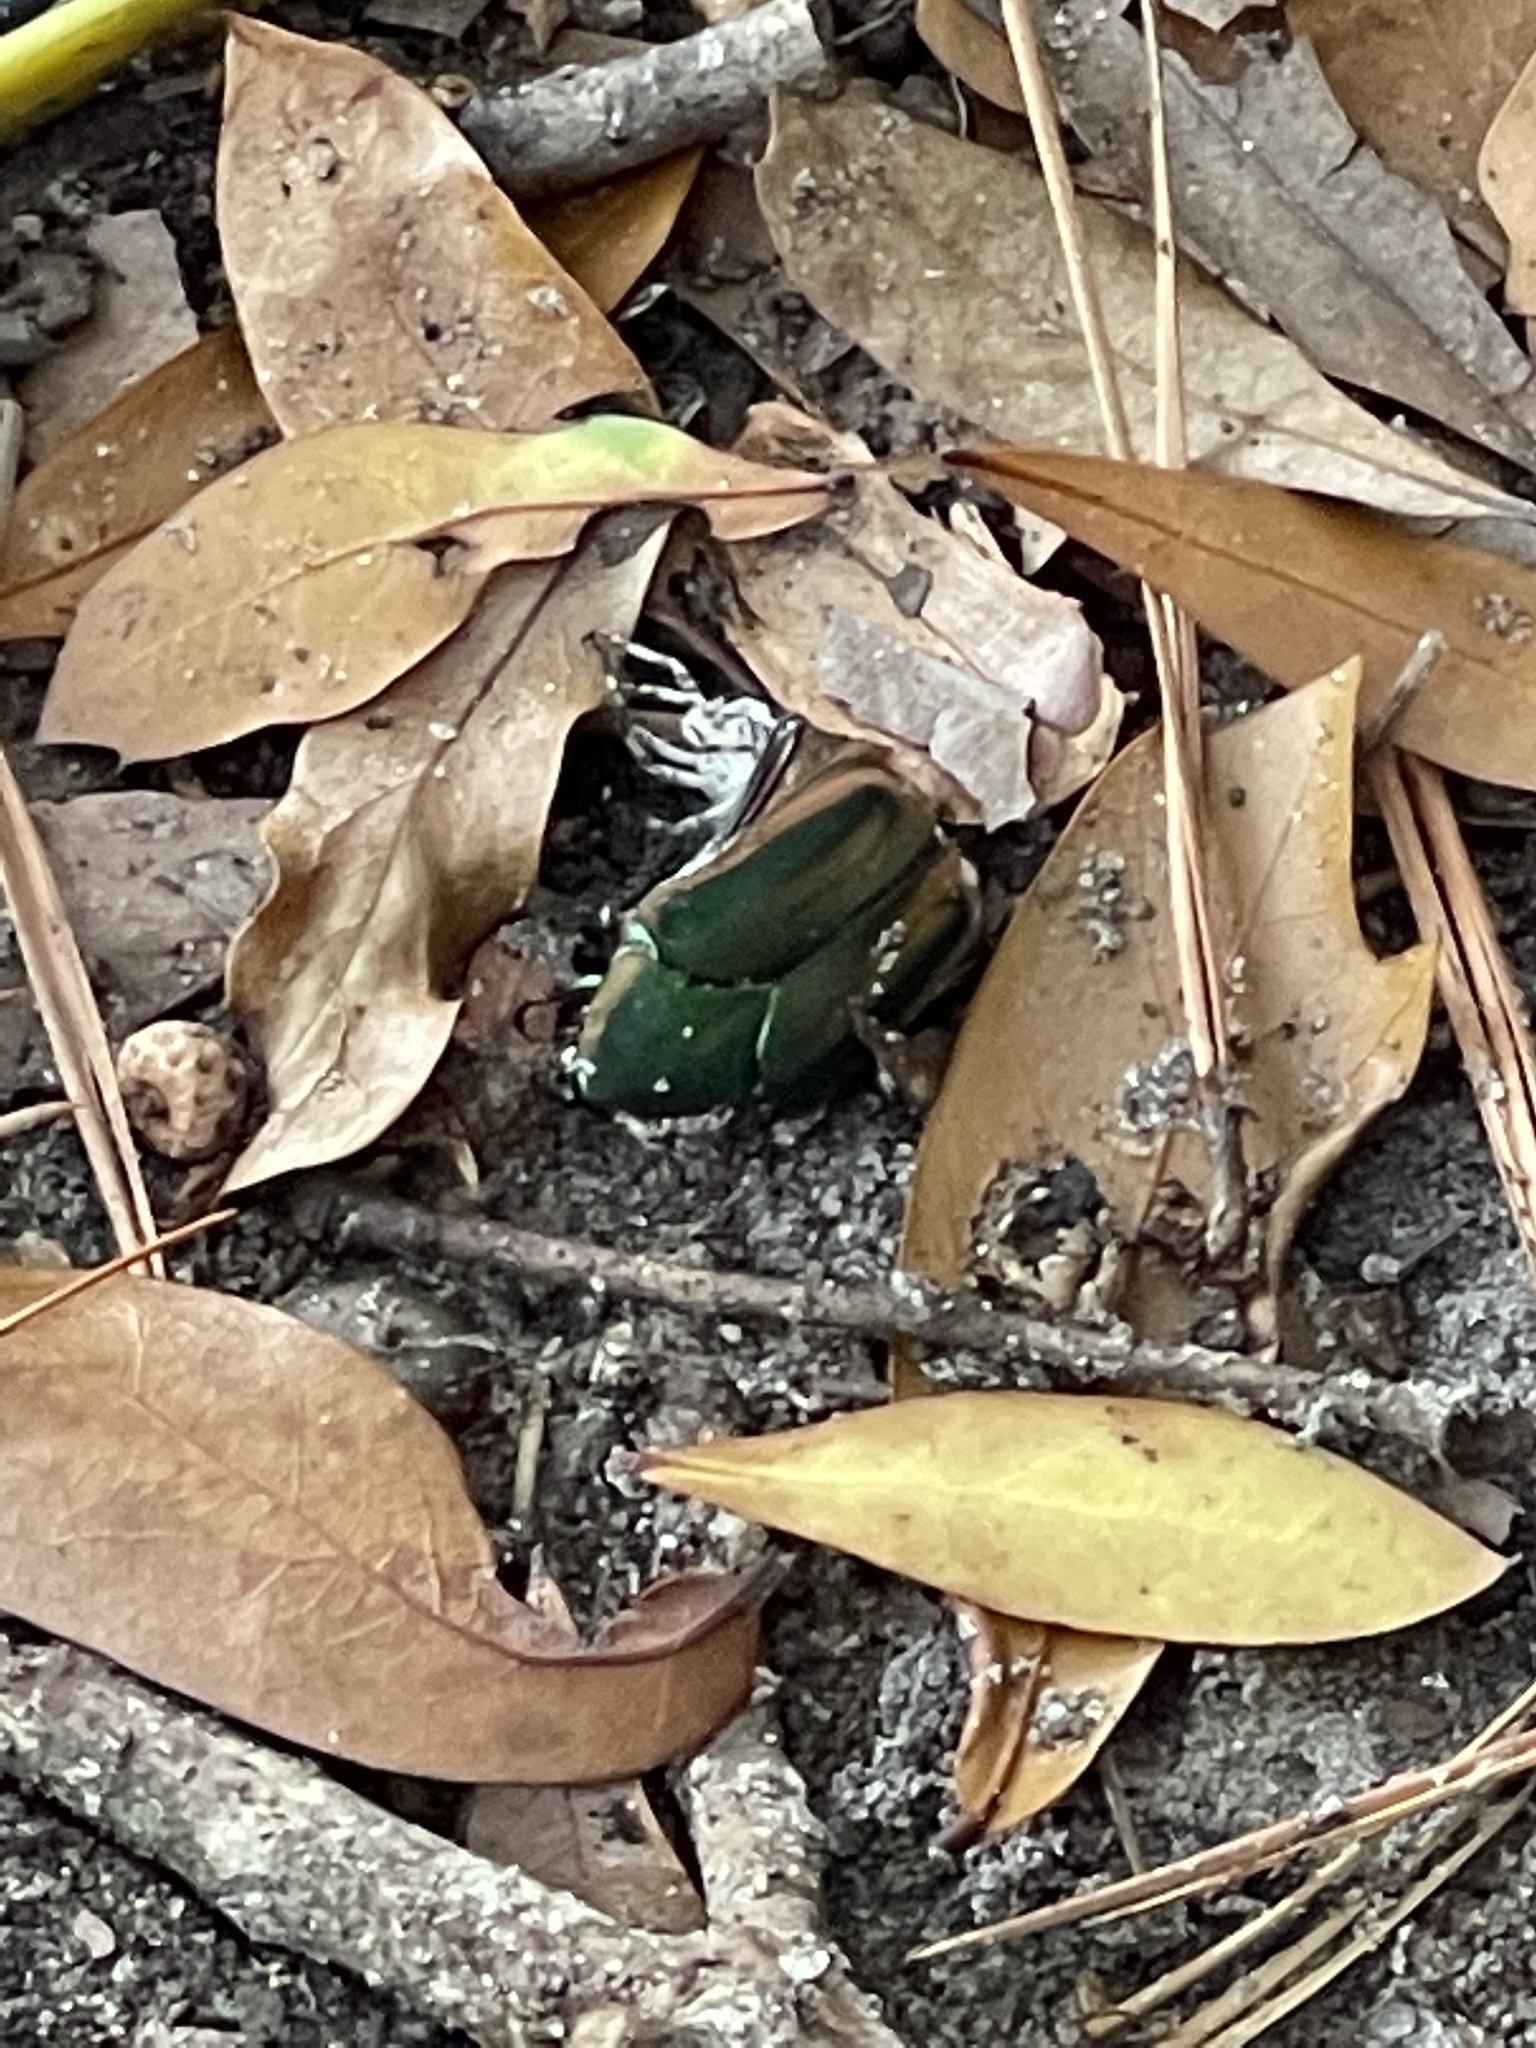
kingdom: Animalia
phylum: Arthropoda
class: Insecta
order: Coleoptera
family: Scarabaeidae
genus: Cotinis
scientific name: Cotinis nitida
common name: Common green june beetle
